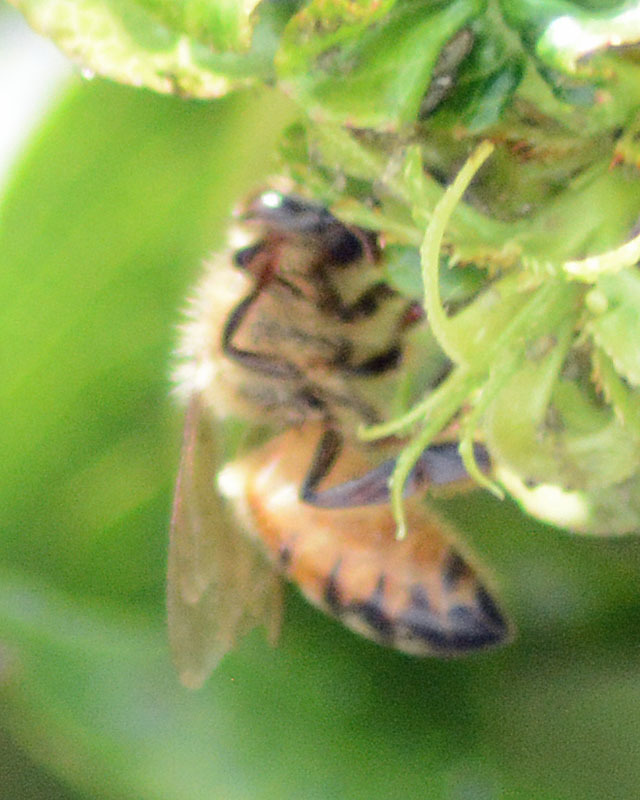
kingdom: Animalia
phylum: Arthropoda
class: Insecta
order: Hymenoptera
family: Apidae
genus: Apis
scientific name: Apis mellifera
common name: Honey bee
